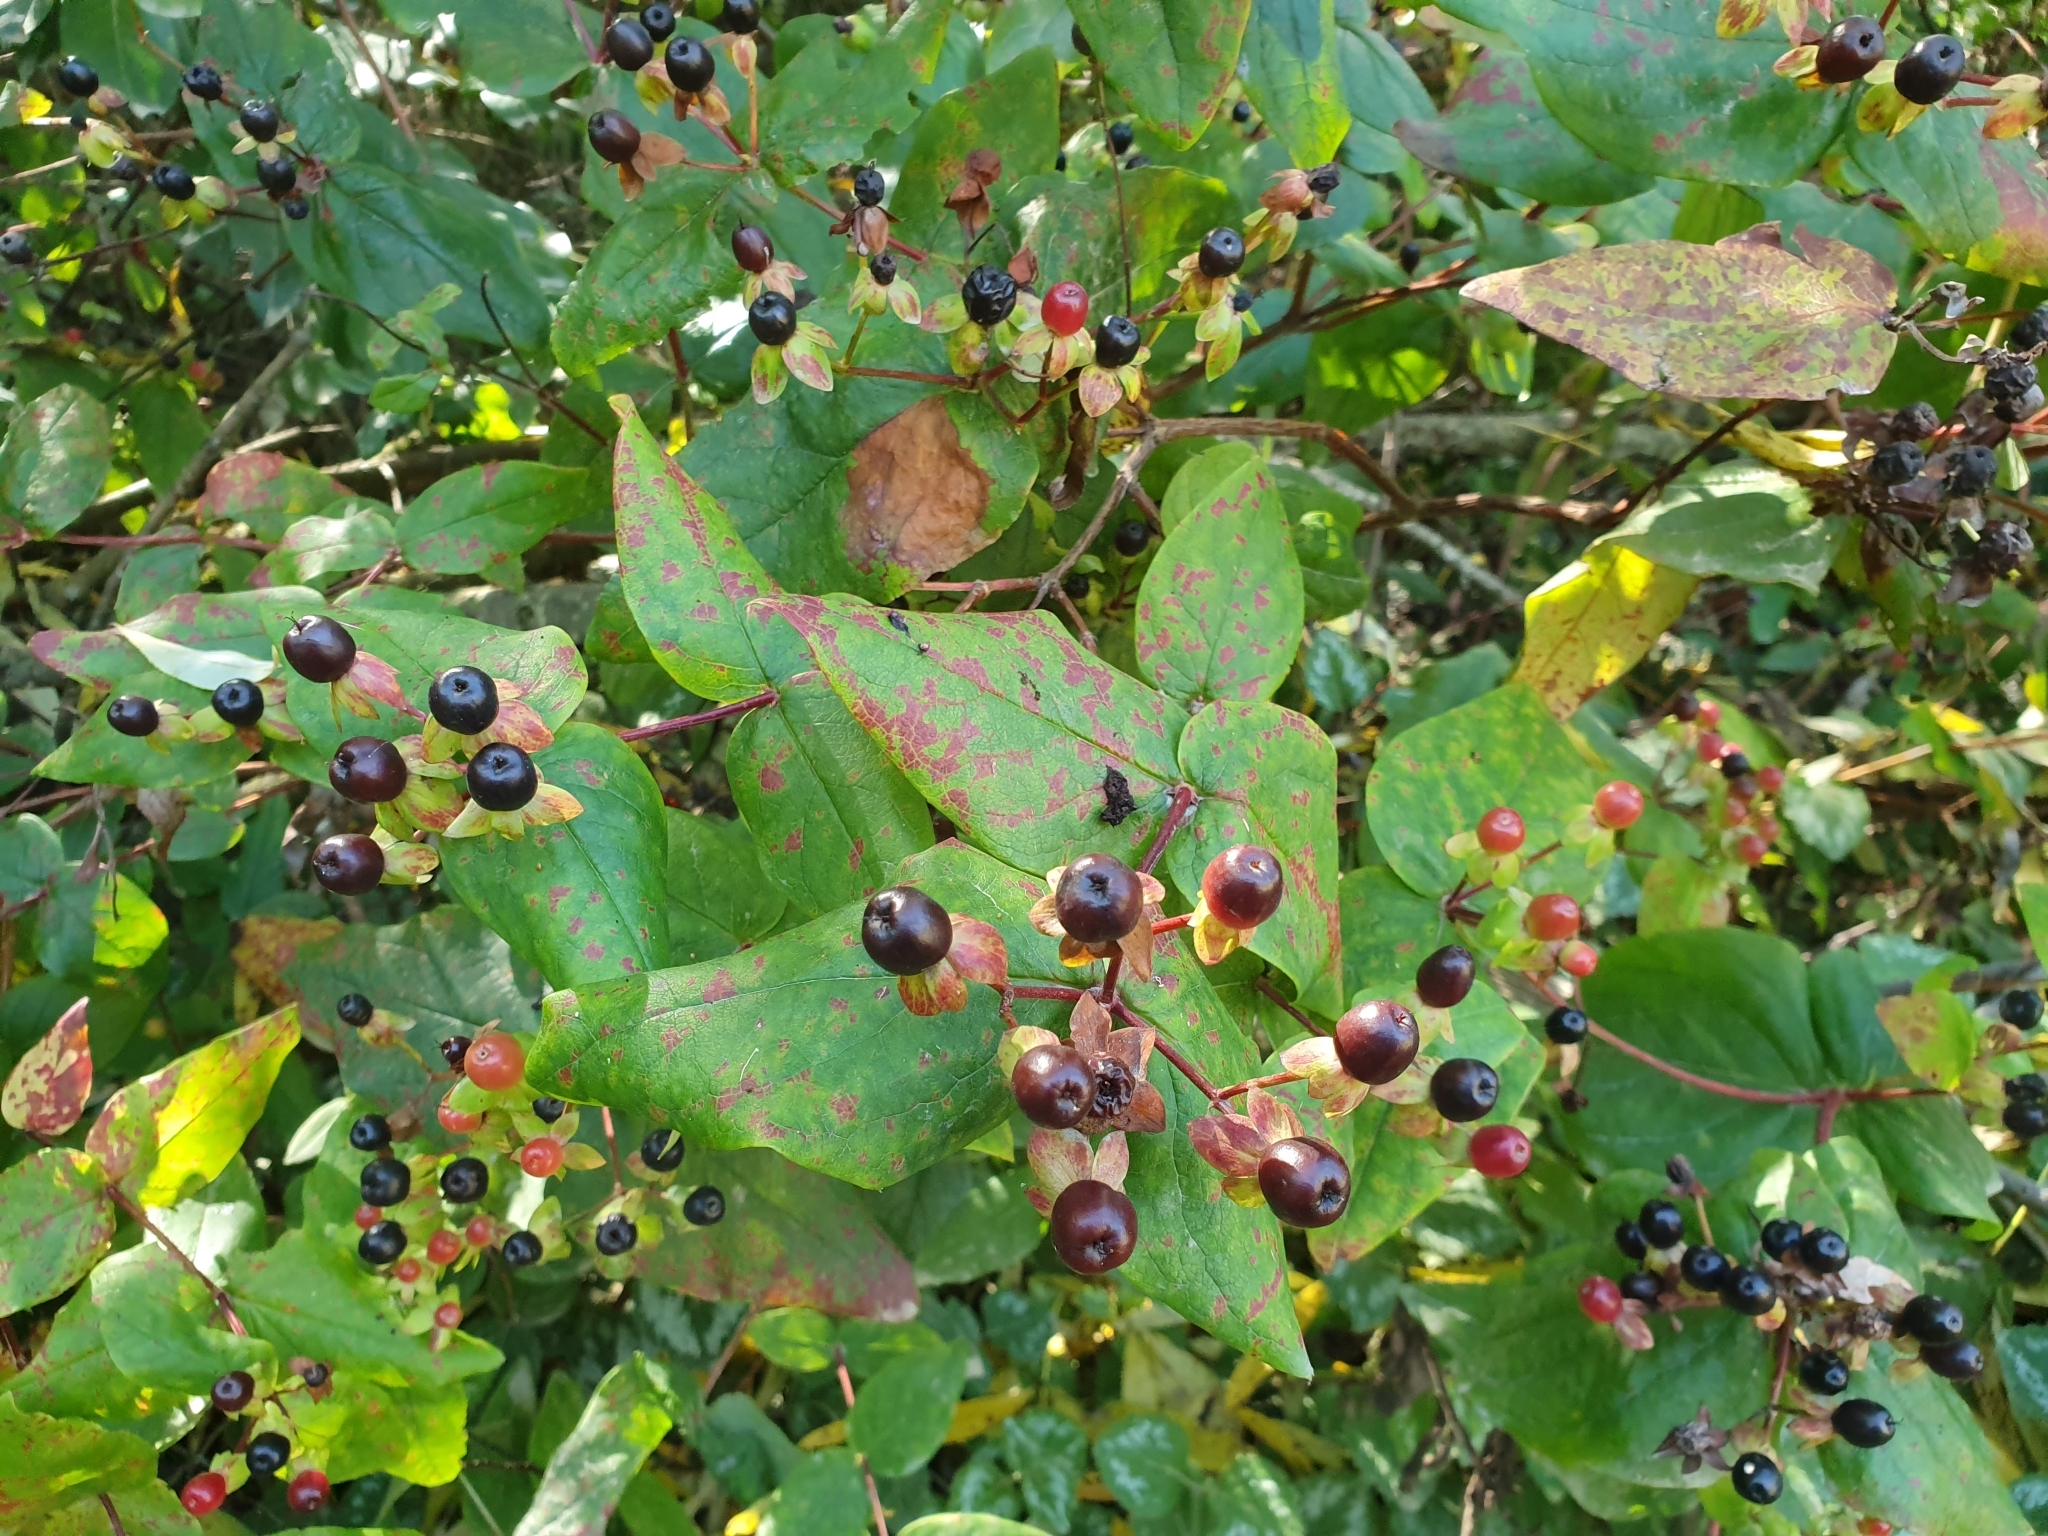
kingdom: Plantae
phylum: Tracheophyta
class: Magnoliopsida
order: Malpighiales
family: Hypericaceae
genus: Hypericum
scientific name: Hypericum androsaemum
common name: Sweet-amber
